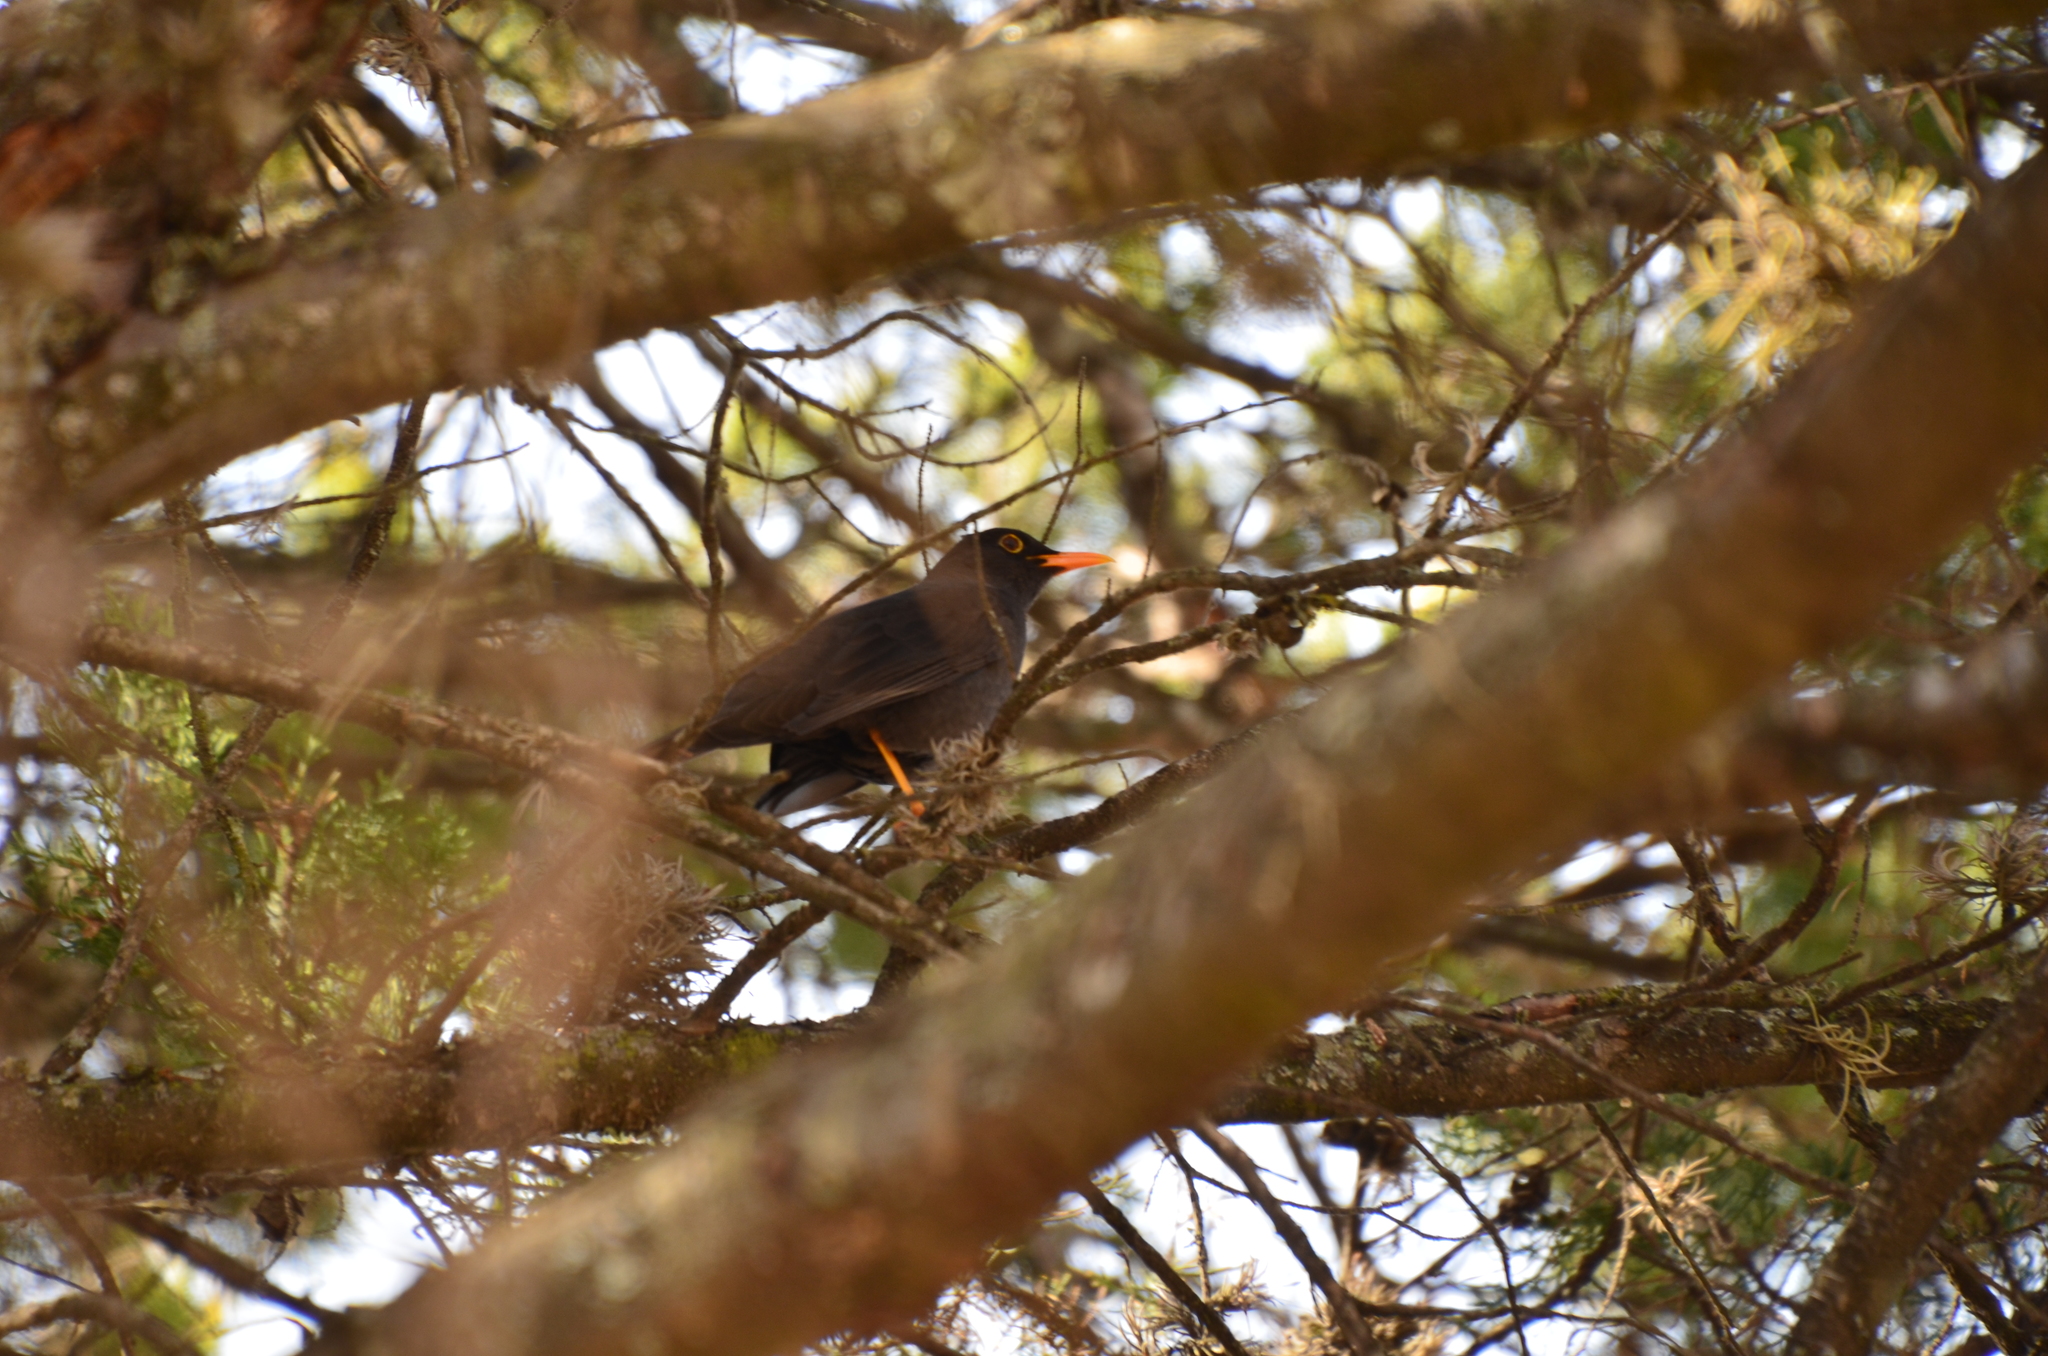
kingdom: Animalia
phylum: Chordata
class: Aves
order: Passeriformes
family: Turdidae
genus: Turdus
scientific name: Turdus chiguanco
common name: Chiguanco thrush
